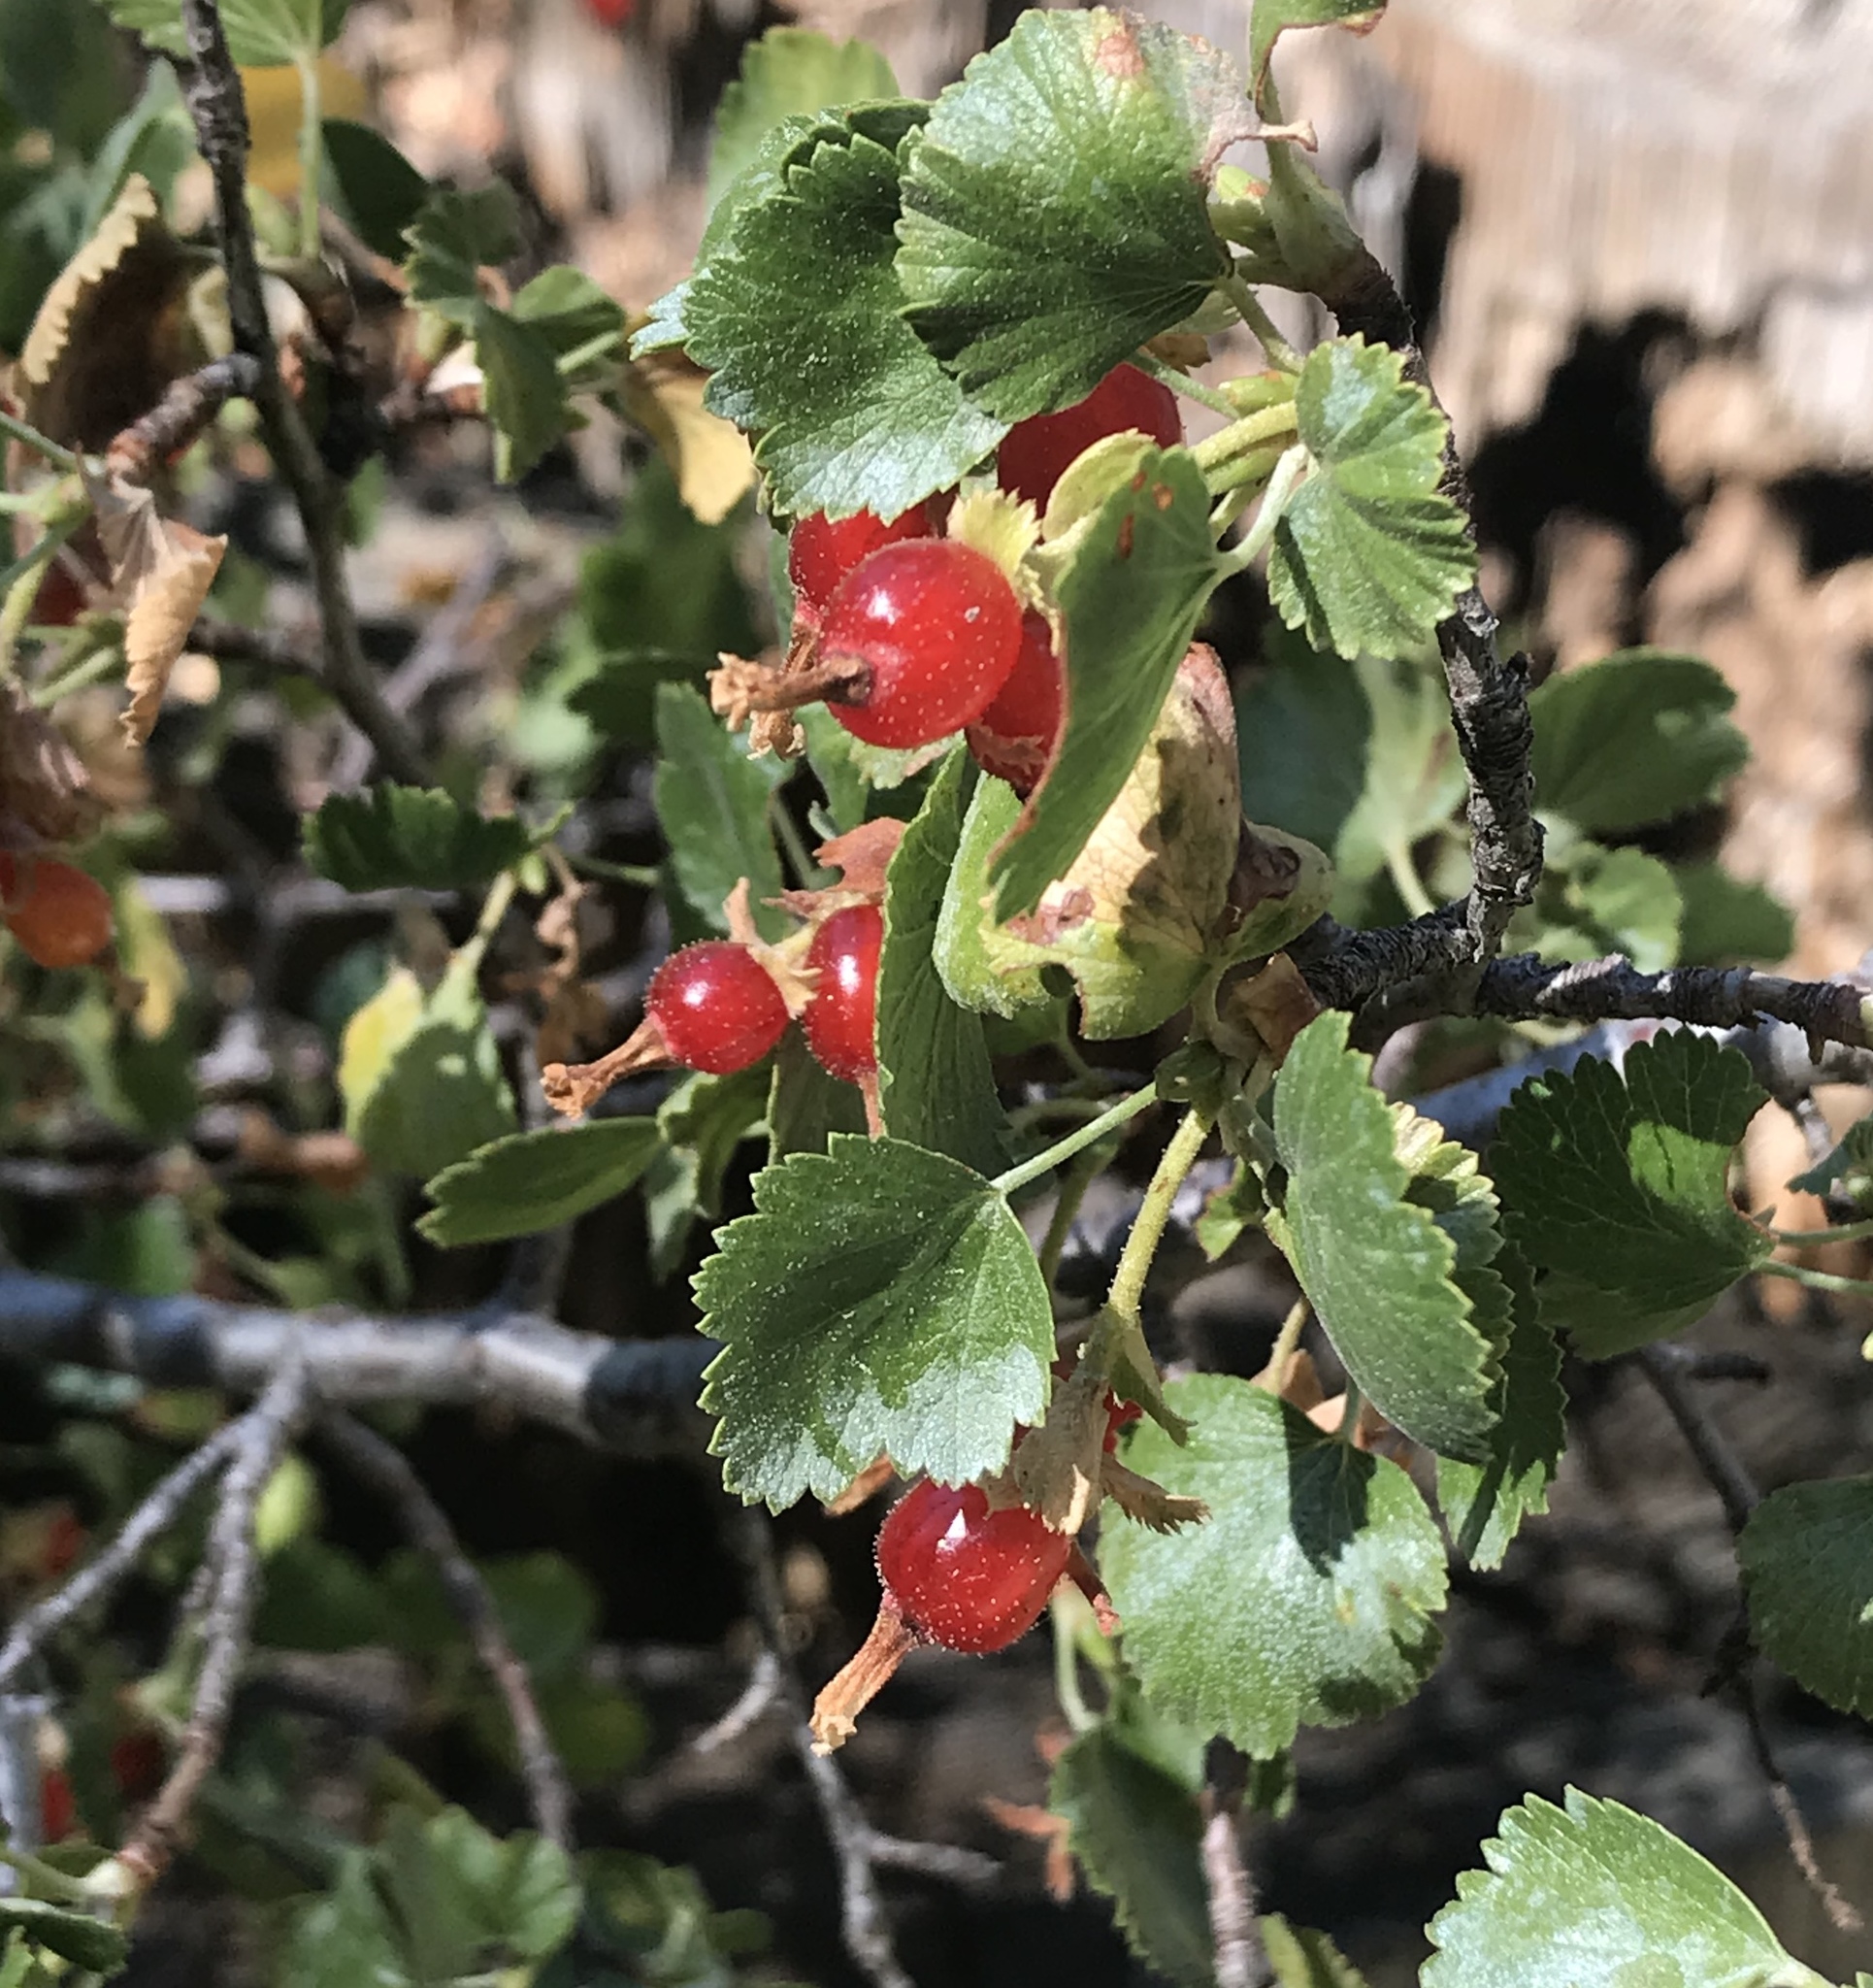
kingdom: Plantae
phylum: Tracheophyta
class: Magnoliopsida
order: Saxifragales
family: Grossulariaceae
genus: Ribes
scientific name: Ribes cereum
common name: Wax currant
